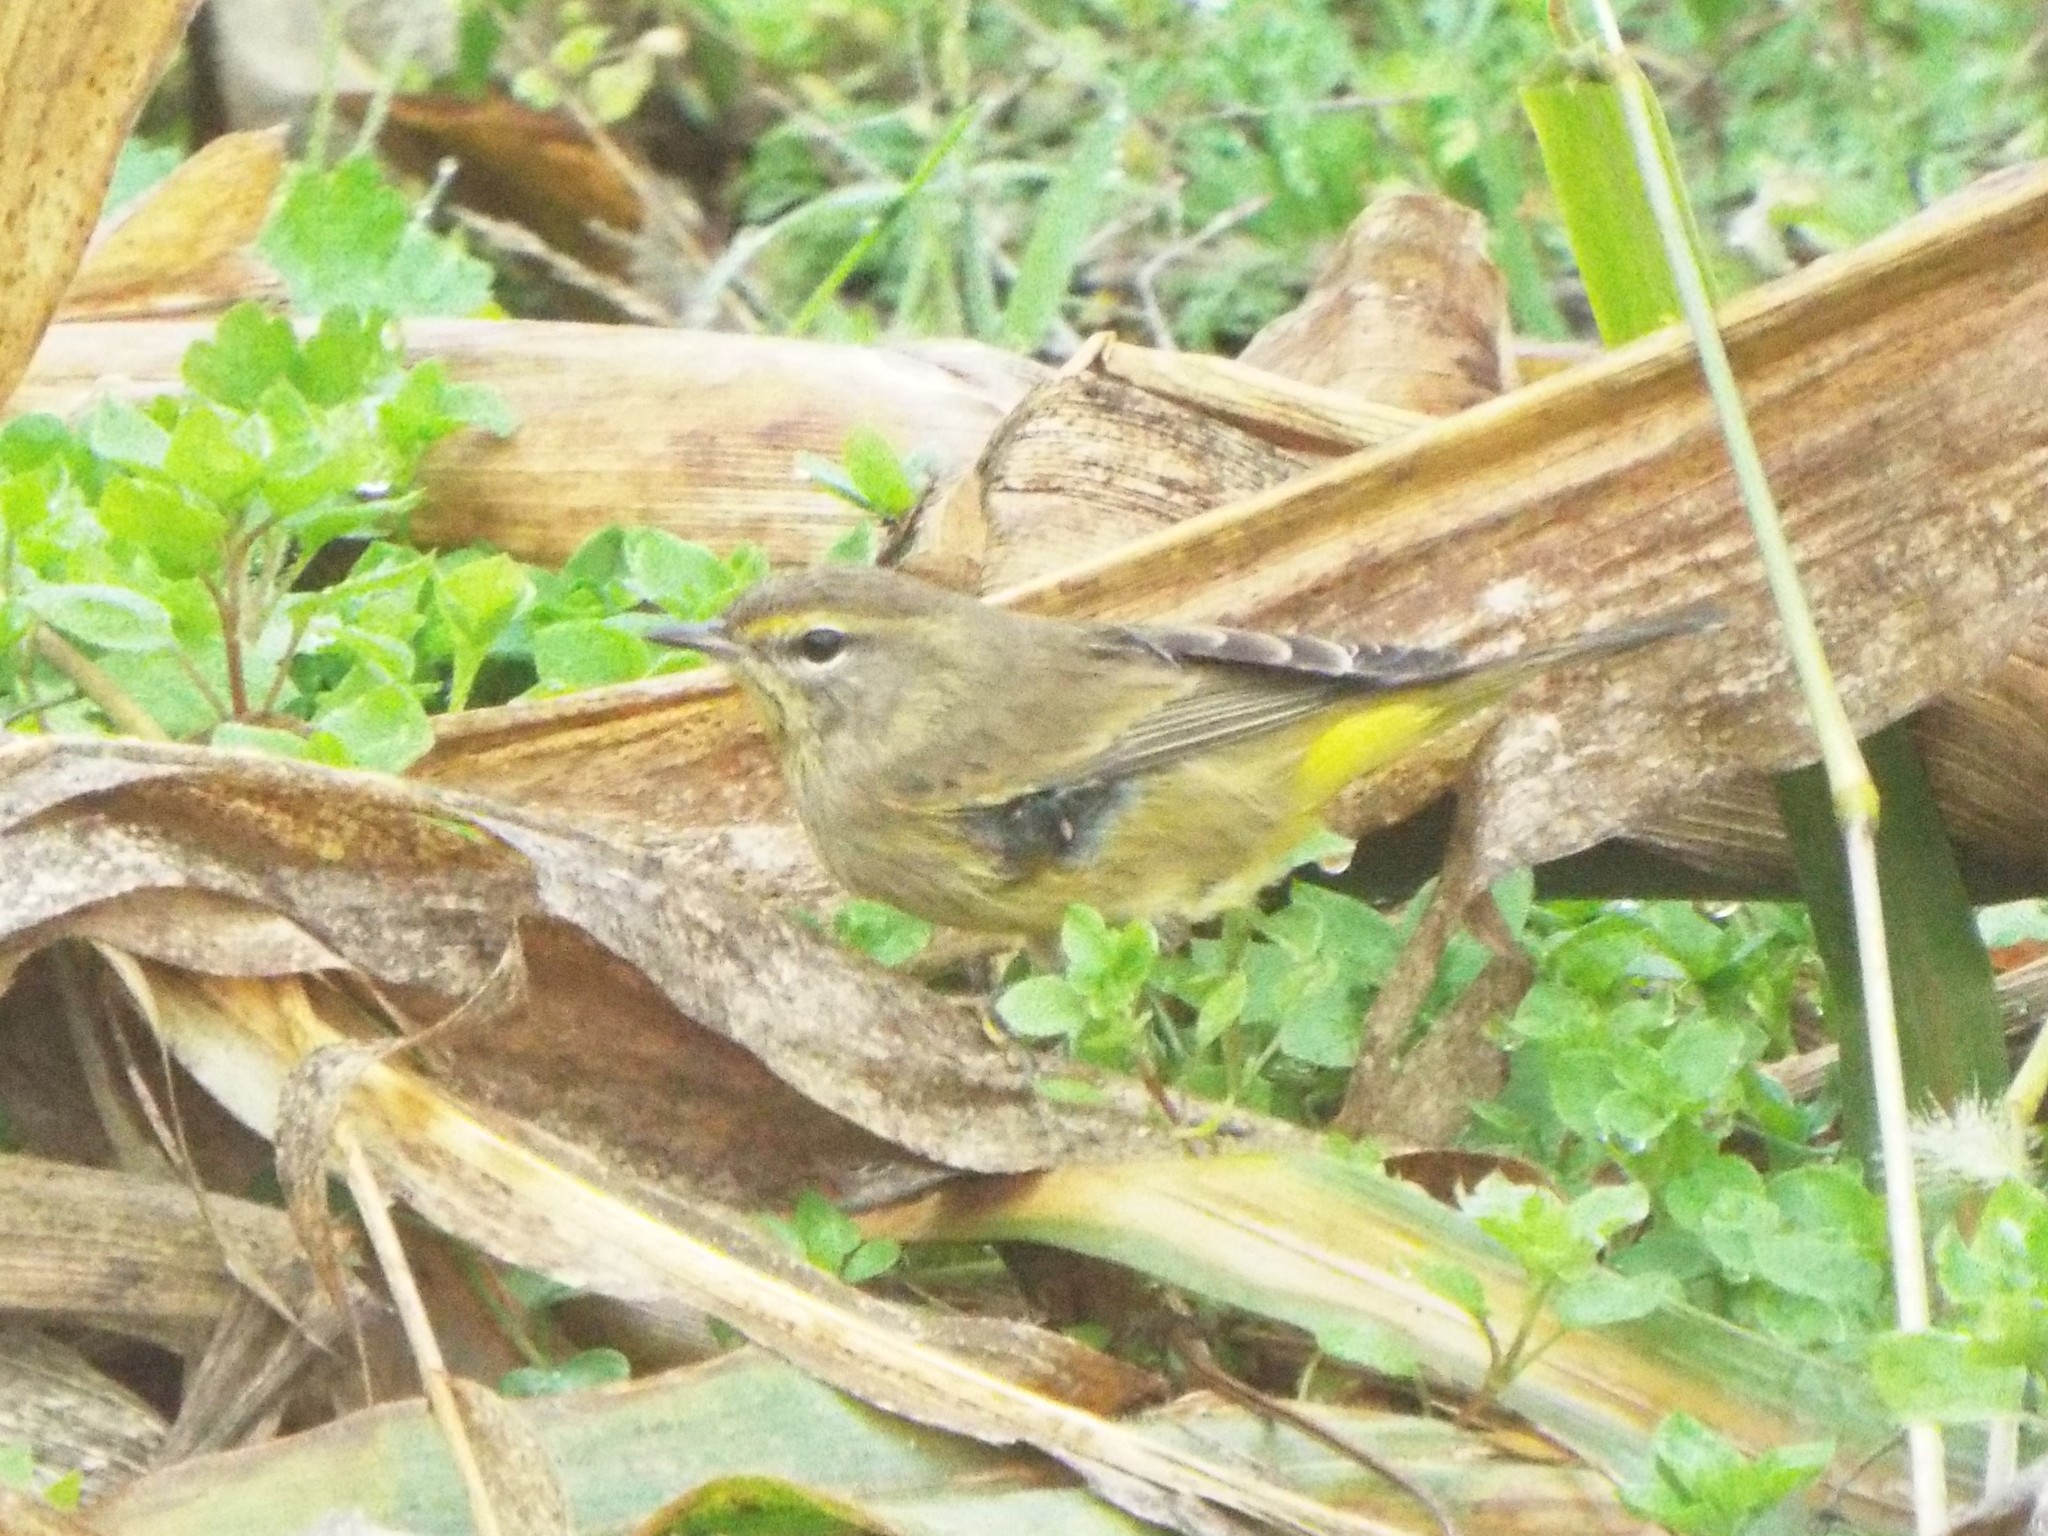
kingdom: Animalia
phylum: Chordata
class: Aves
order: Passeriformes
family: Parulidae
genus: Setophaga
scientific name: Setophaga palmarum
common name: Palm warbler
